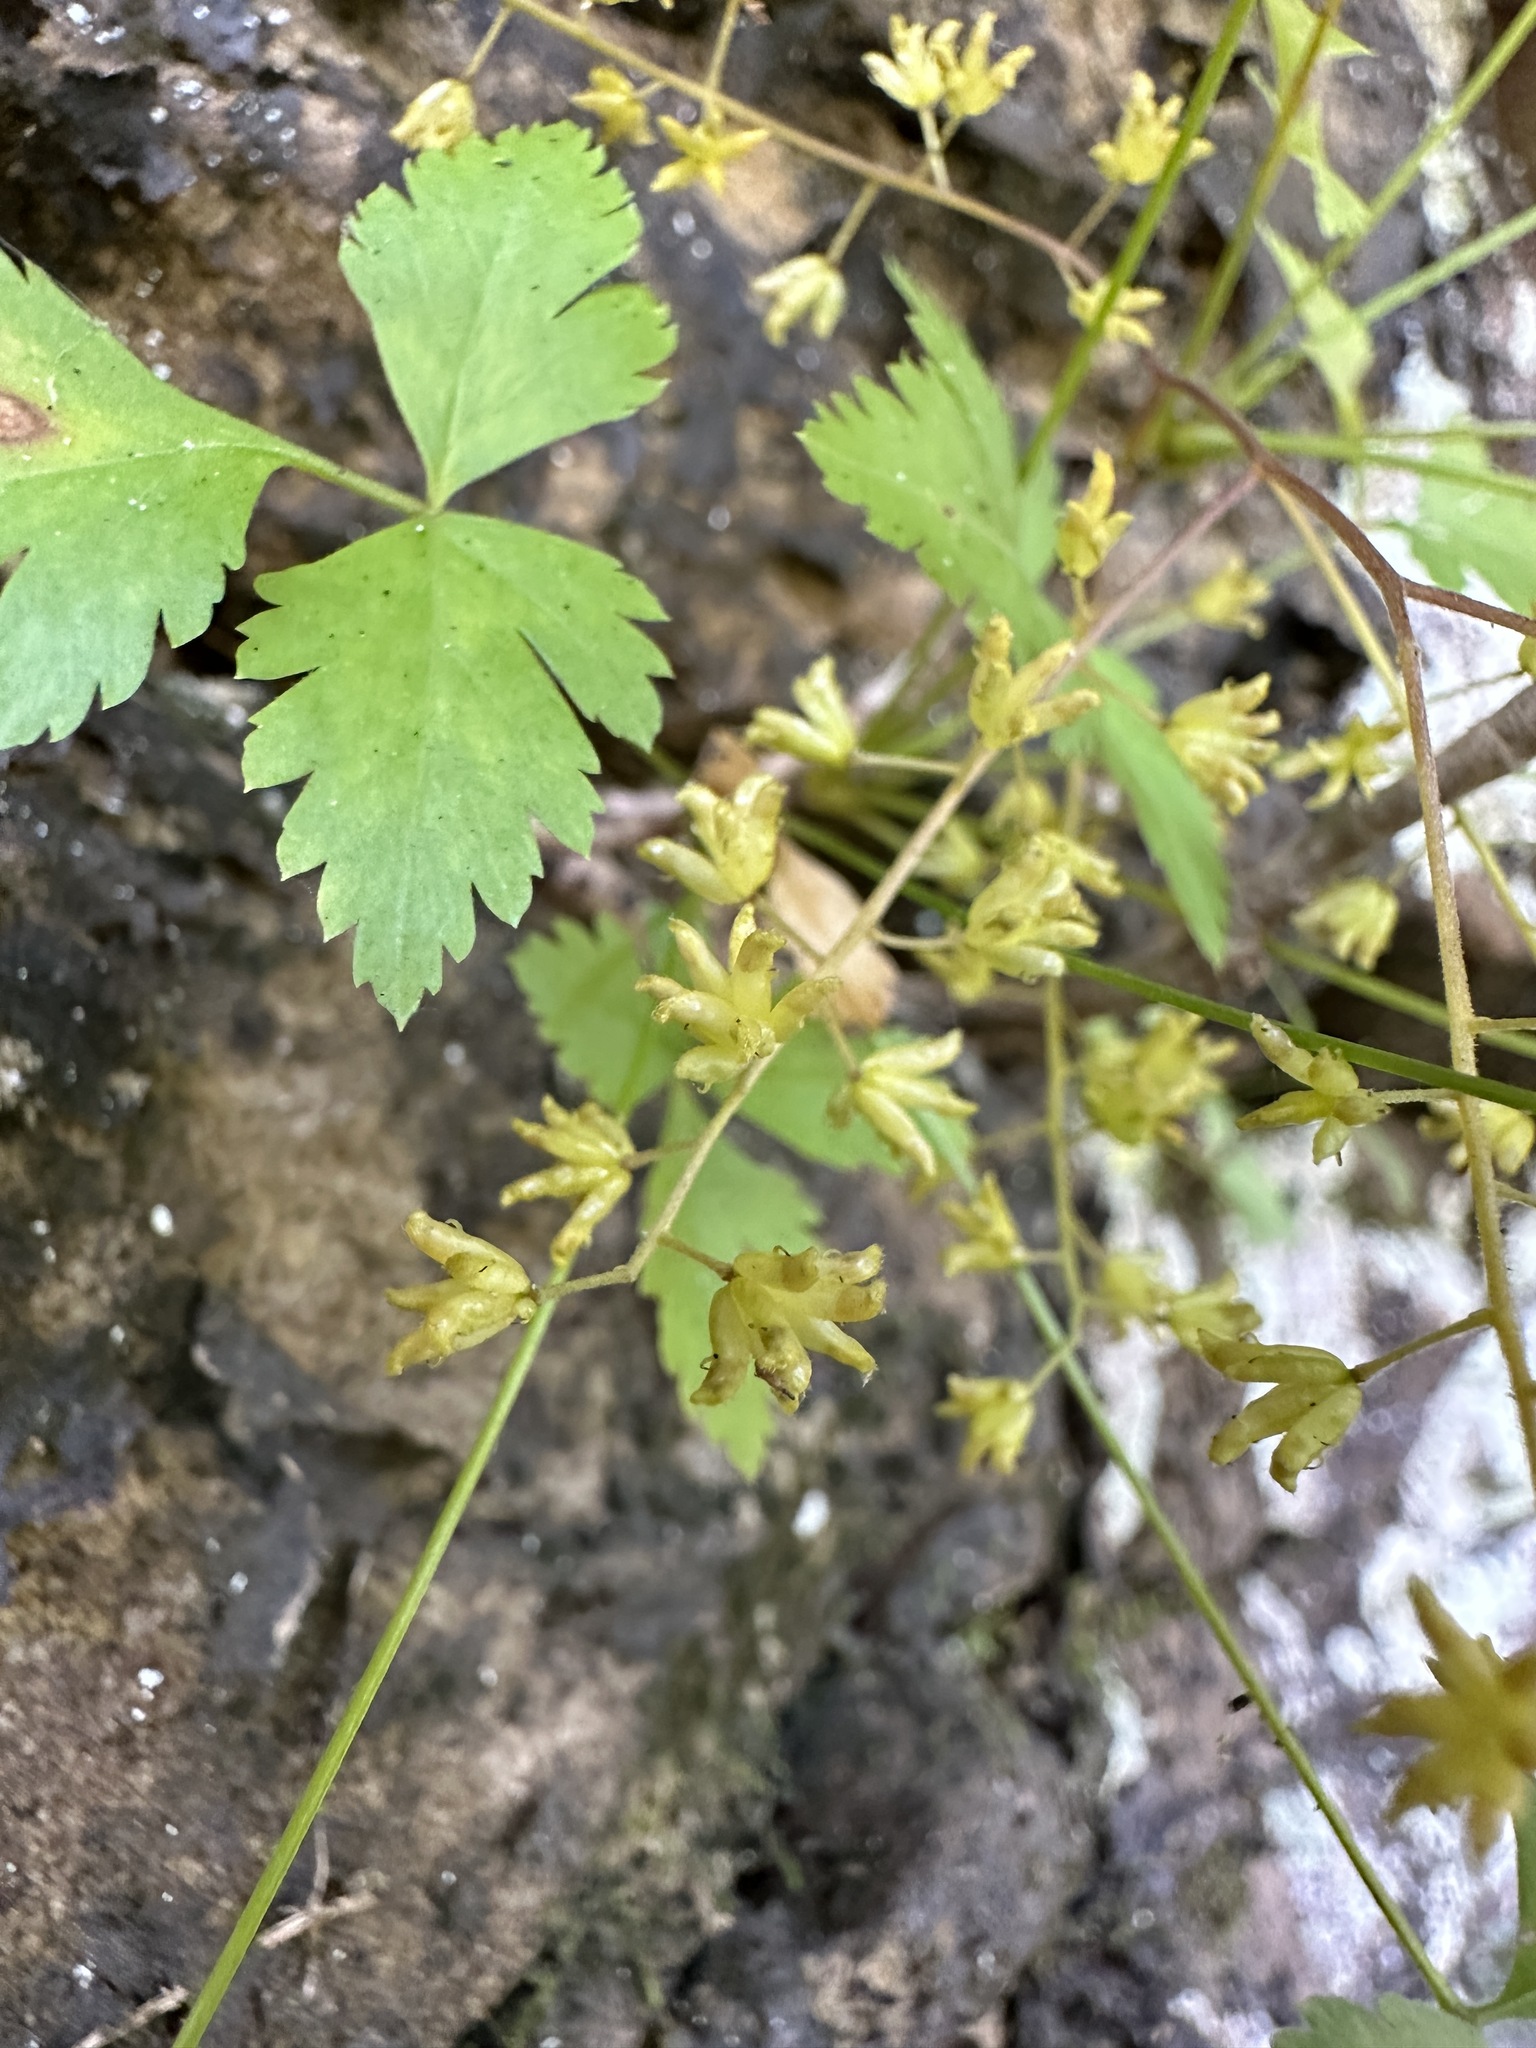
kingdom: Plantae
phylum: Tracheophyta
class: Magnoliopsida
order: Ranunculales
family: Ranunculaceae
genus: Xanthorhiza
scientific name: Xanthorhiza simplicissima
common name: Yellowroot
